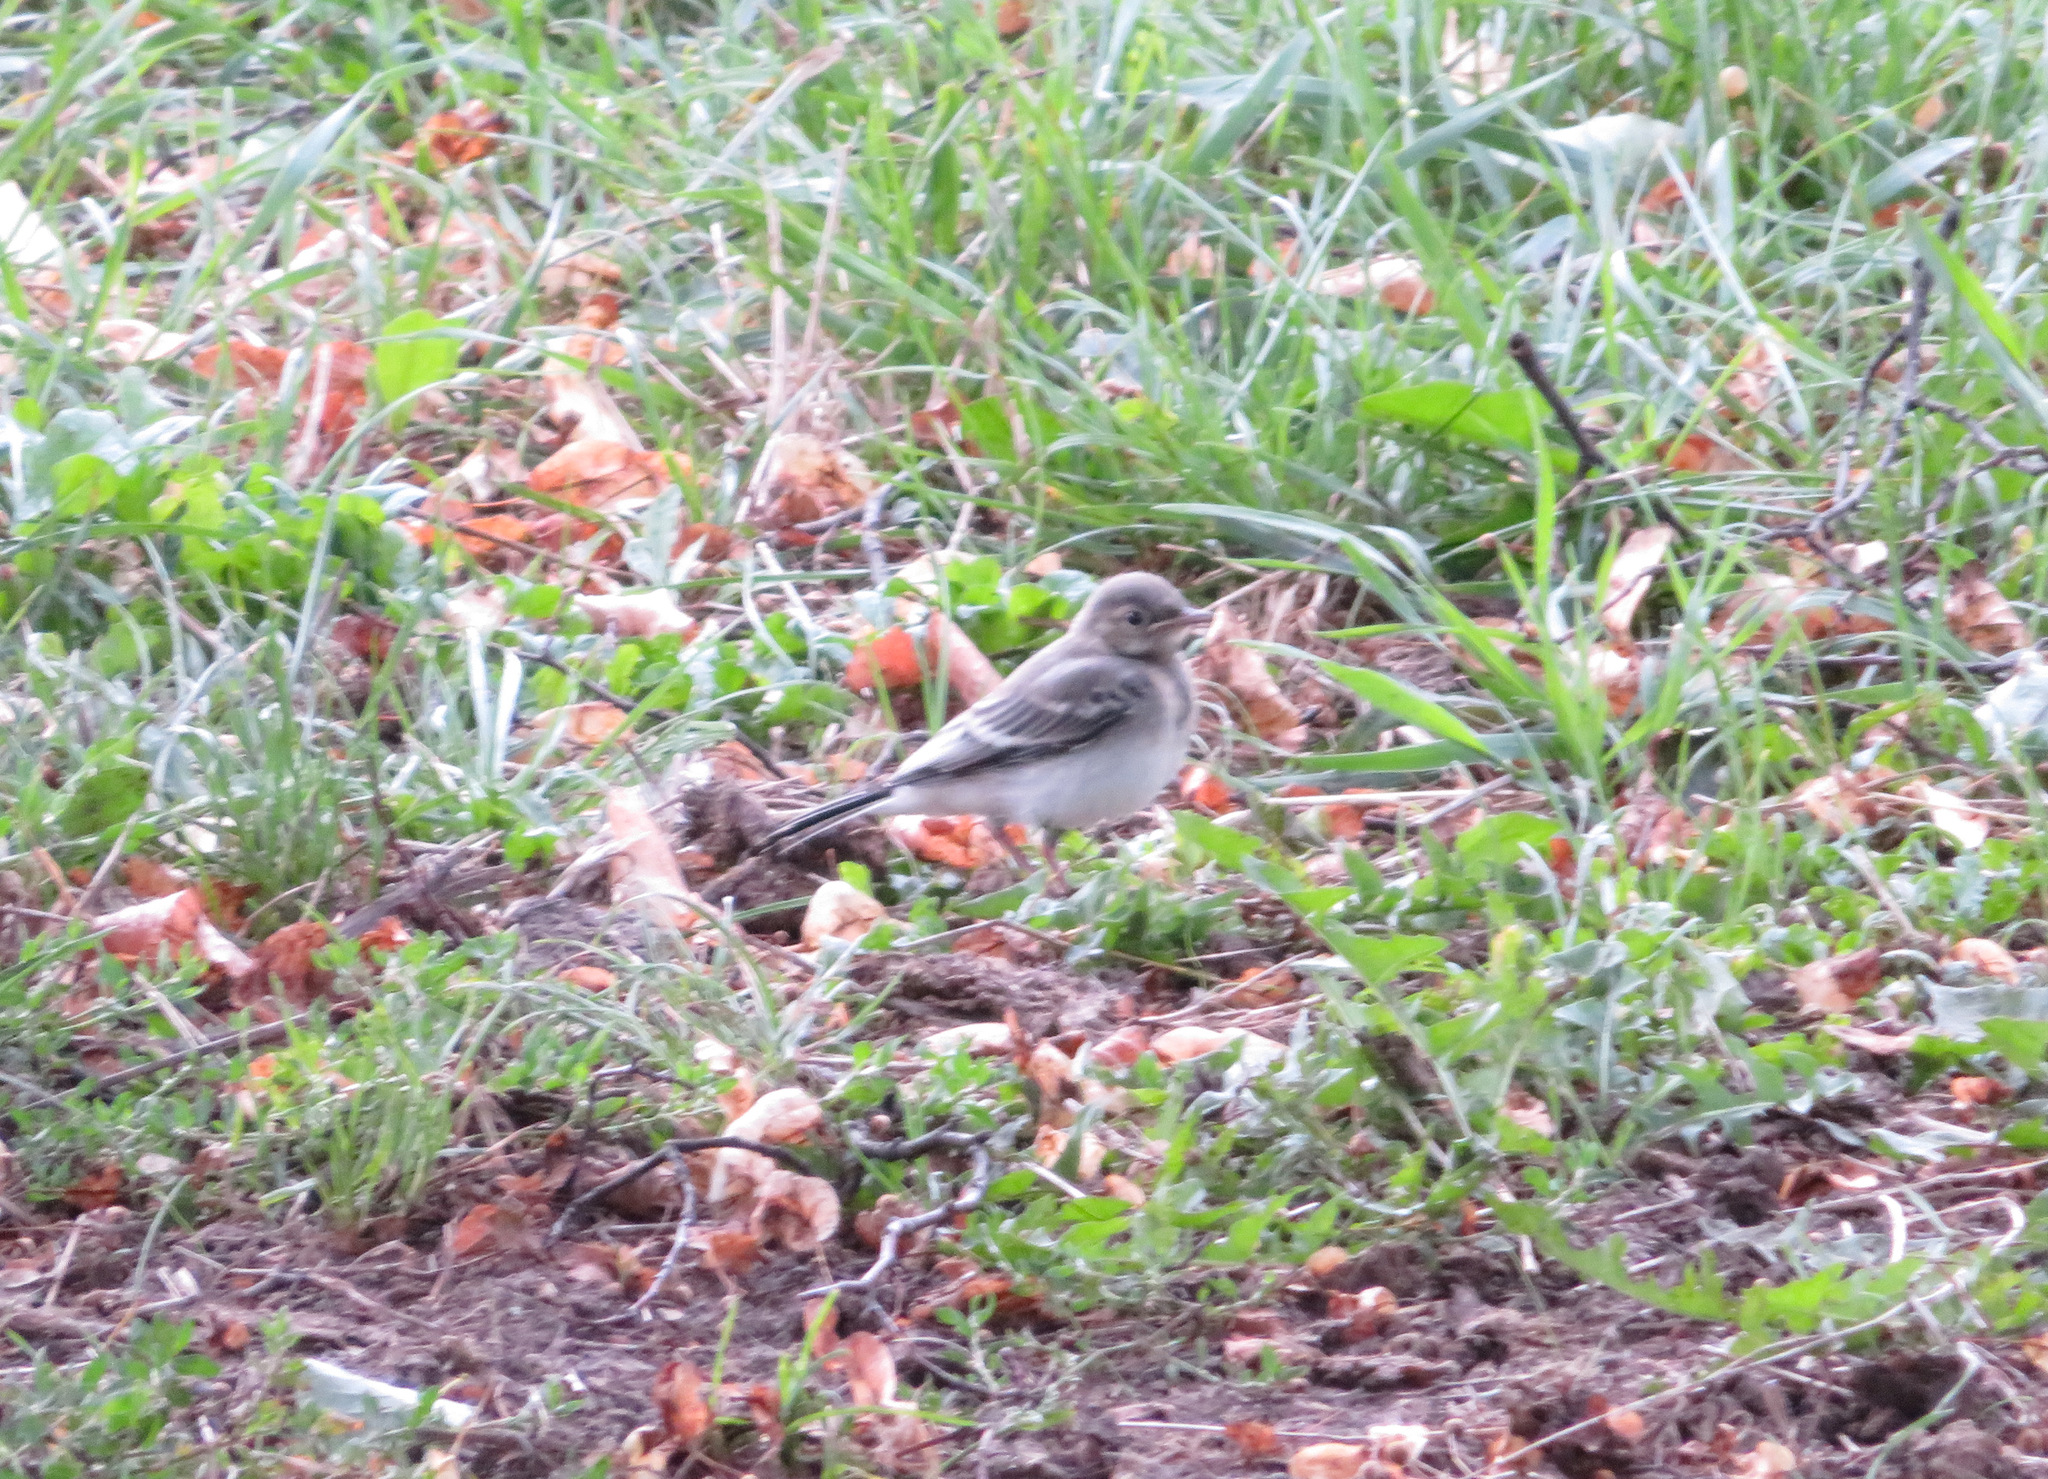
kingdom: Animalia
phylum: Chordata
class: Aves
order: Passeriformes
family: Motacillidae
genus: Motacilla
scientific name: Motacilla alba
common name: White wagtail
